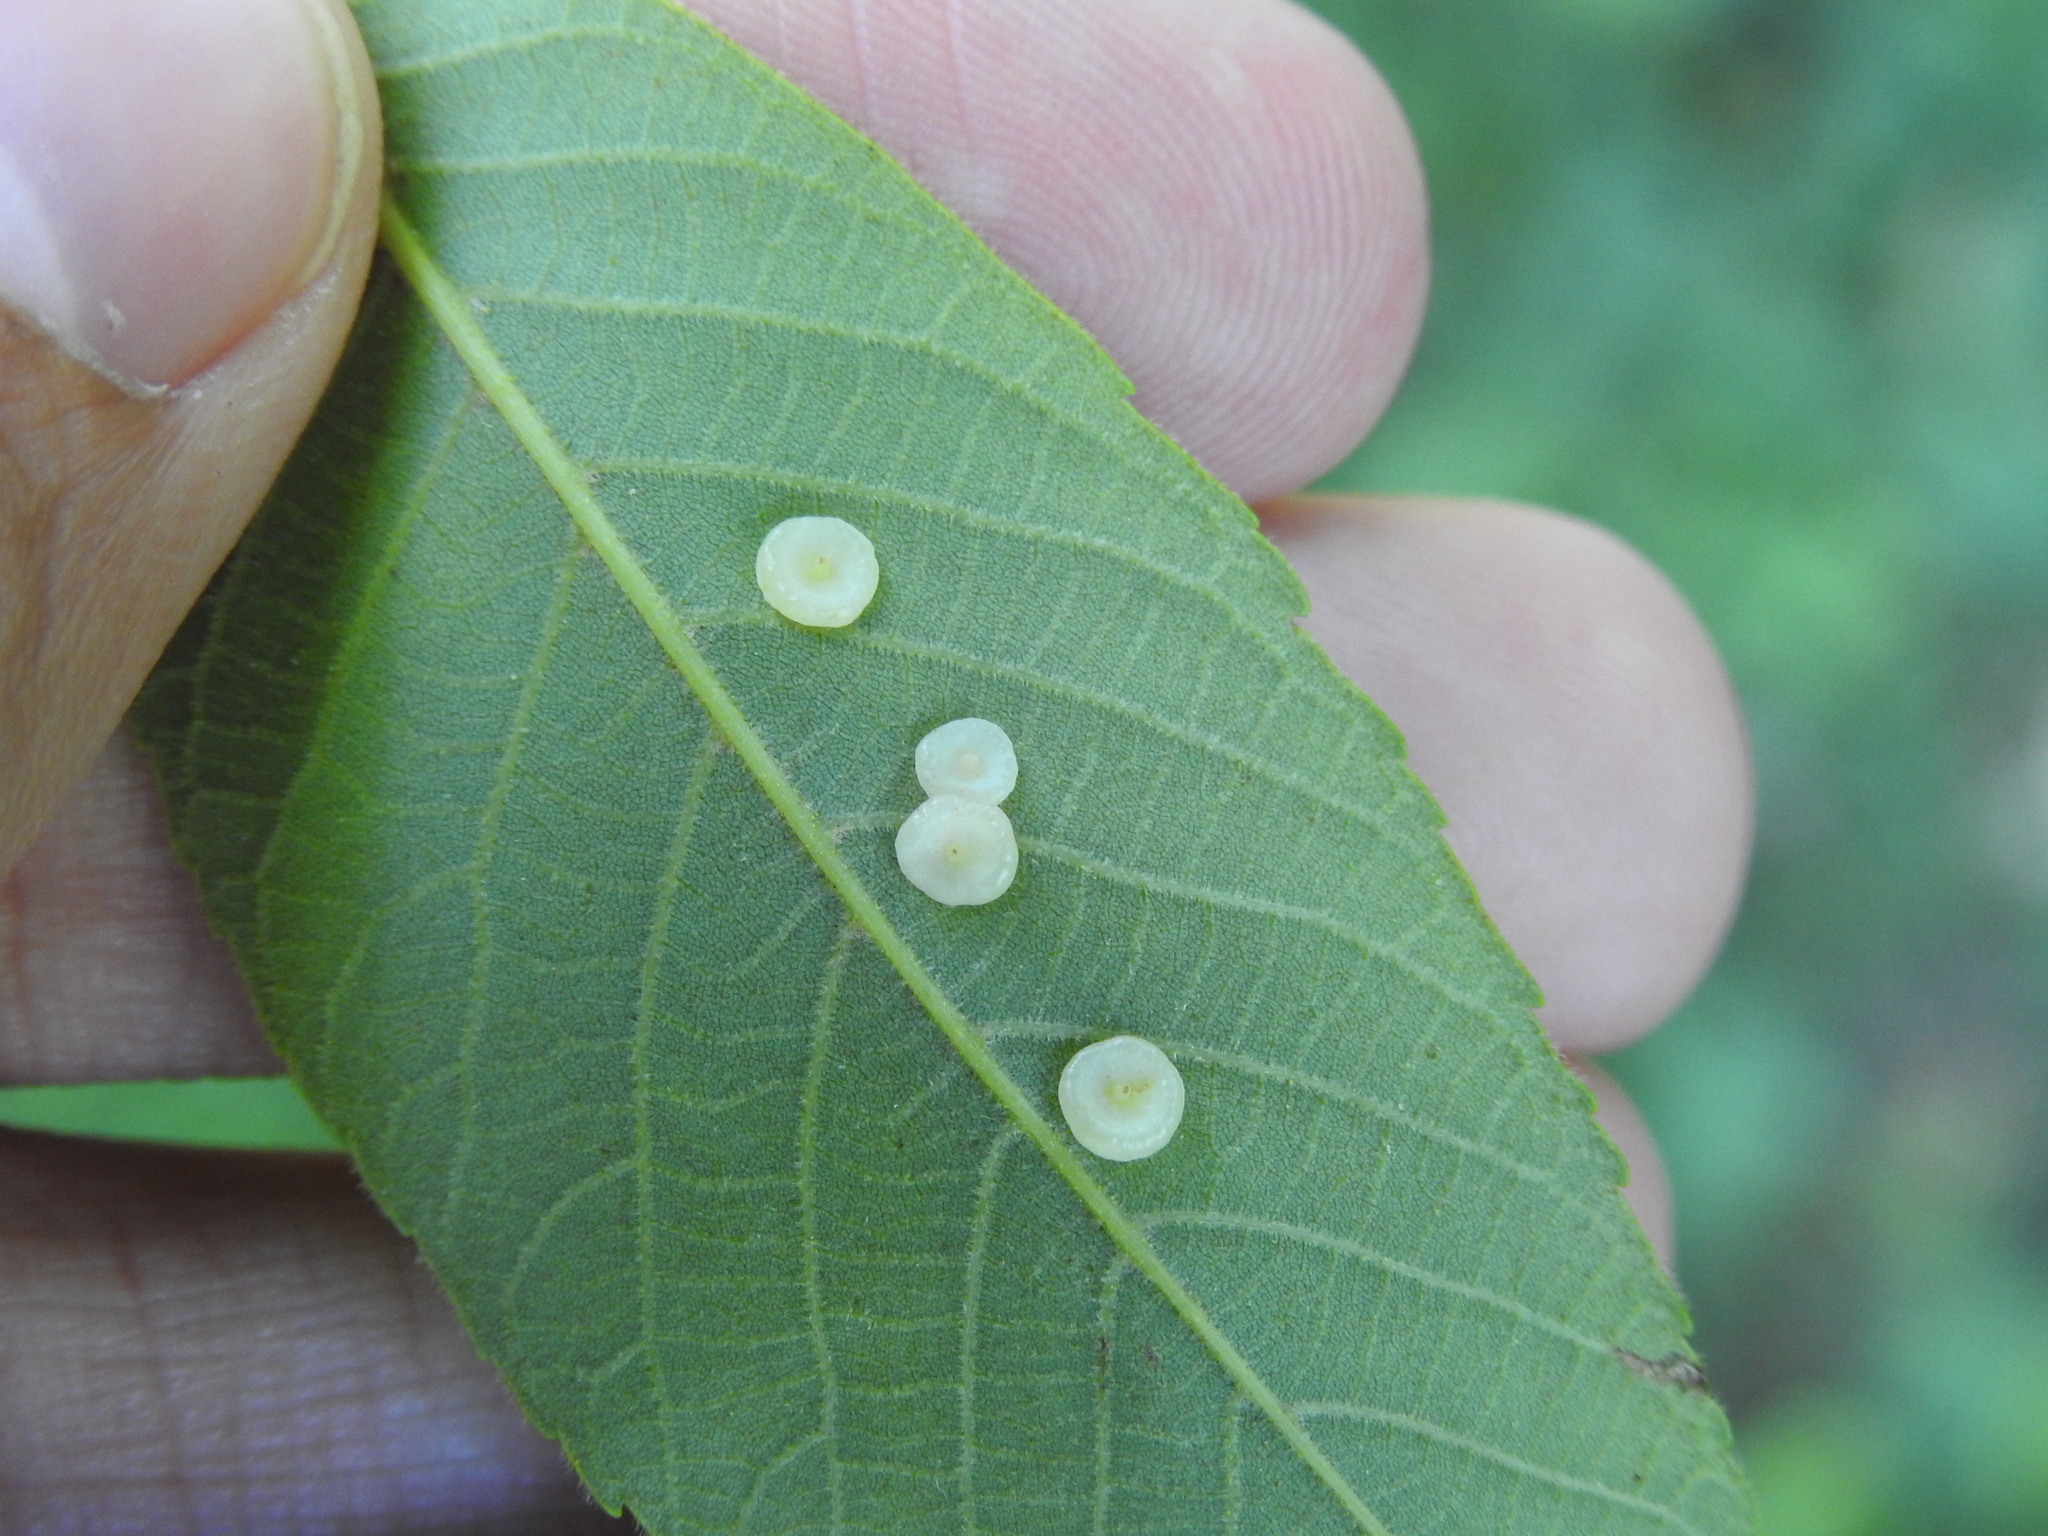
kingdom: Animalia
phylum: Arthropoda
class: Insecta
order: Diptera
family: Cecidomyiidae
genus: Caryomyia
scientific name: Caryomyia biretta
